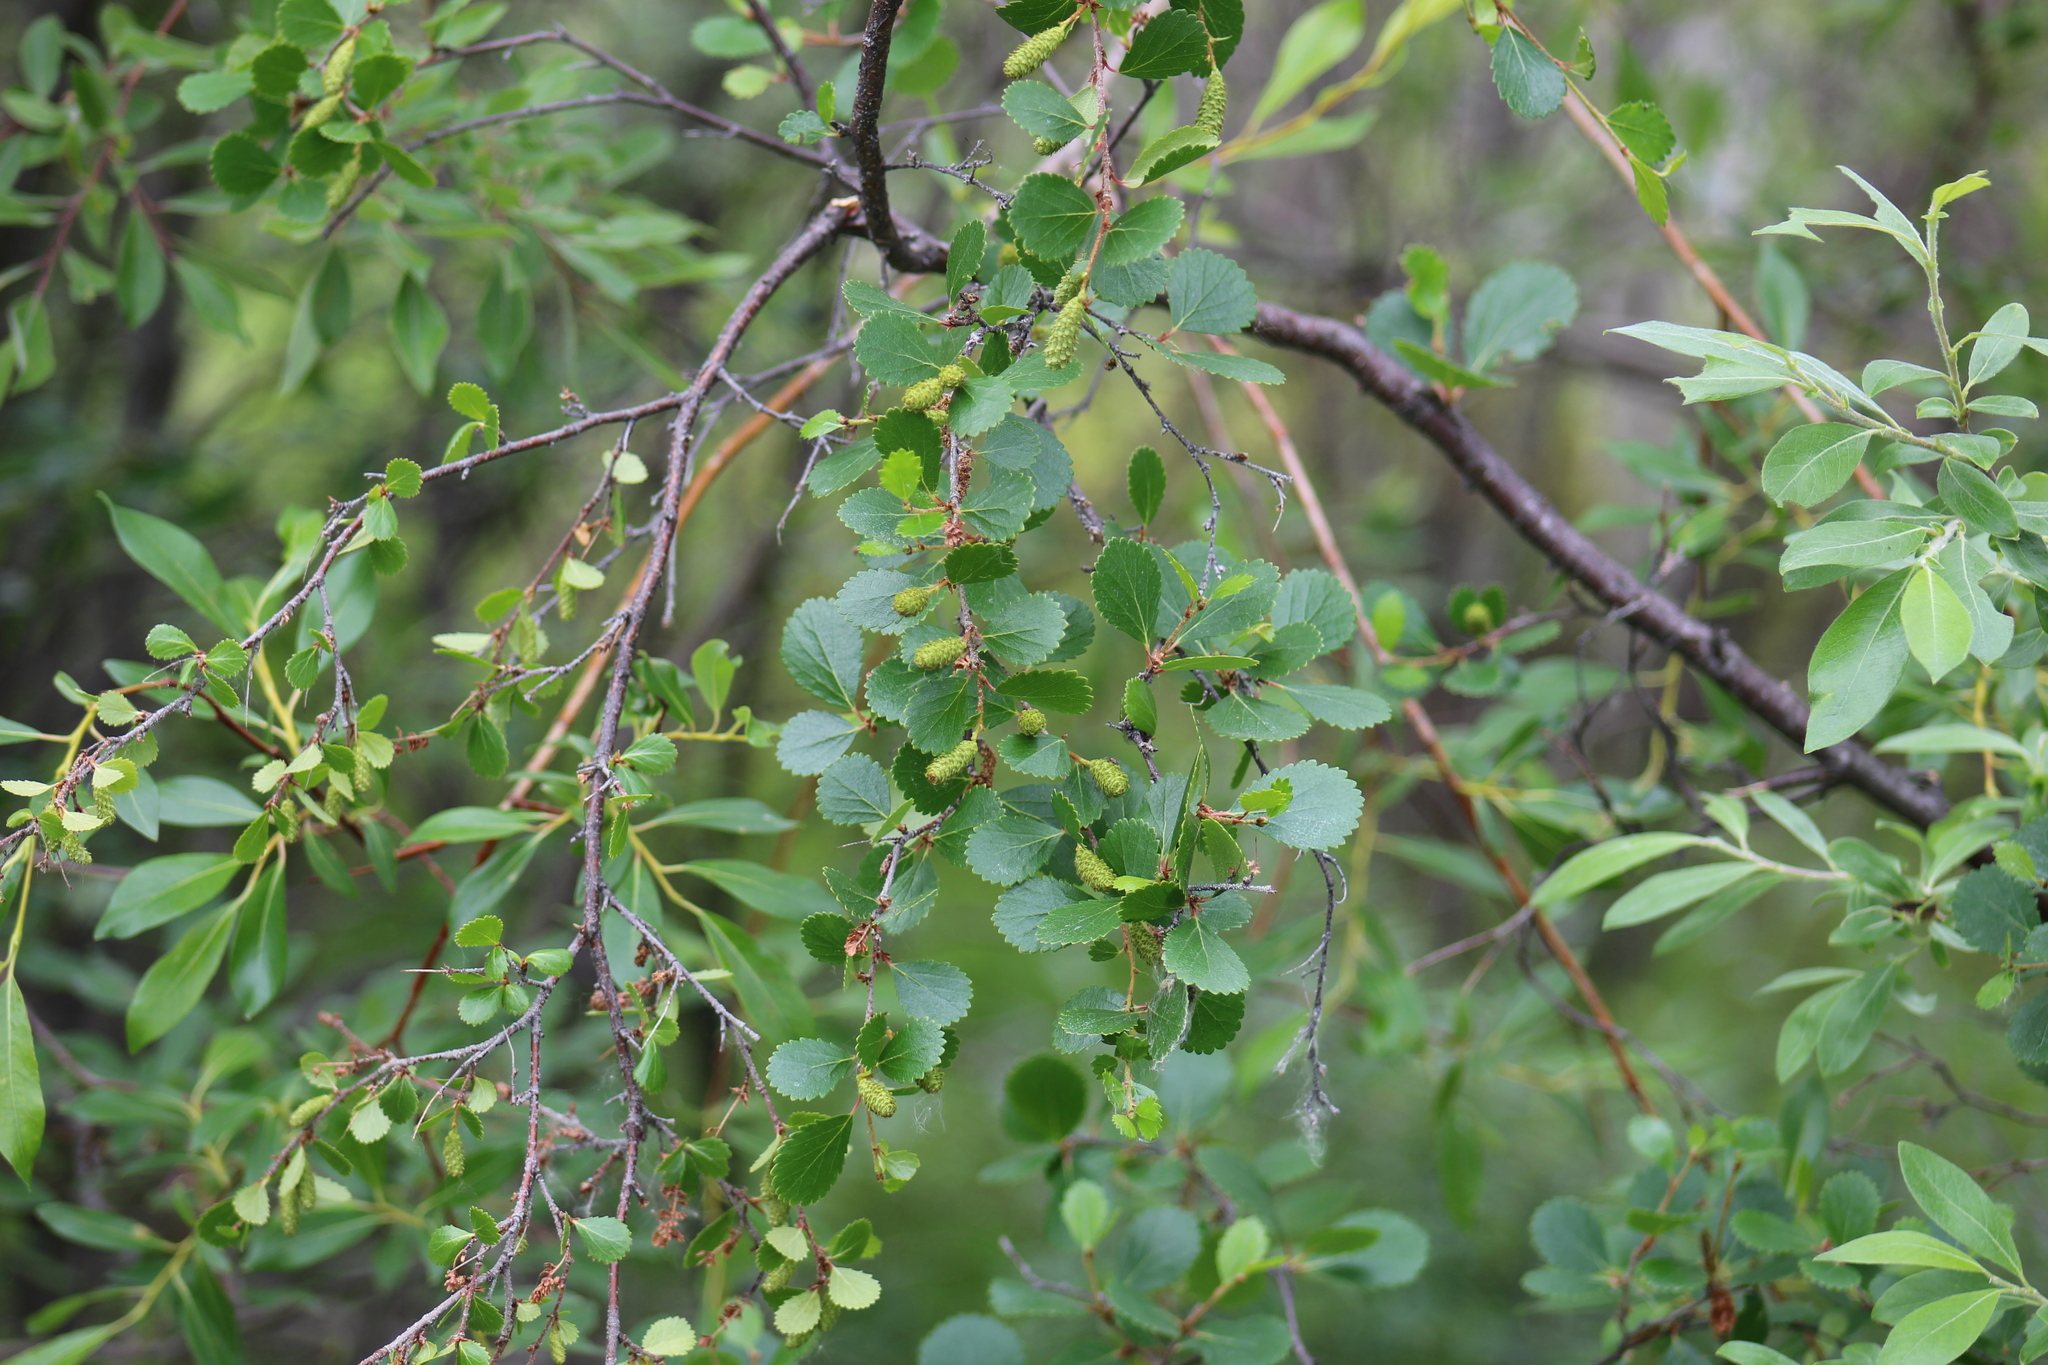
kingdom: Plantae
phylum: Tracheophyta
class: Magnoliopsida
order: Fagales
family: Betulaceae
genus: Betula
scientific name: Betula pumila
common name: Bog birch
